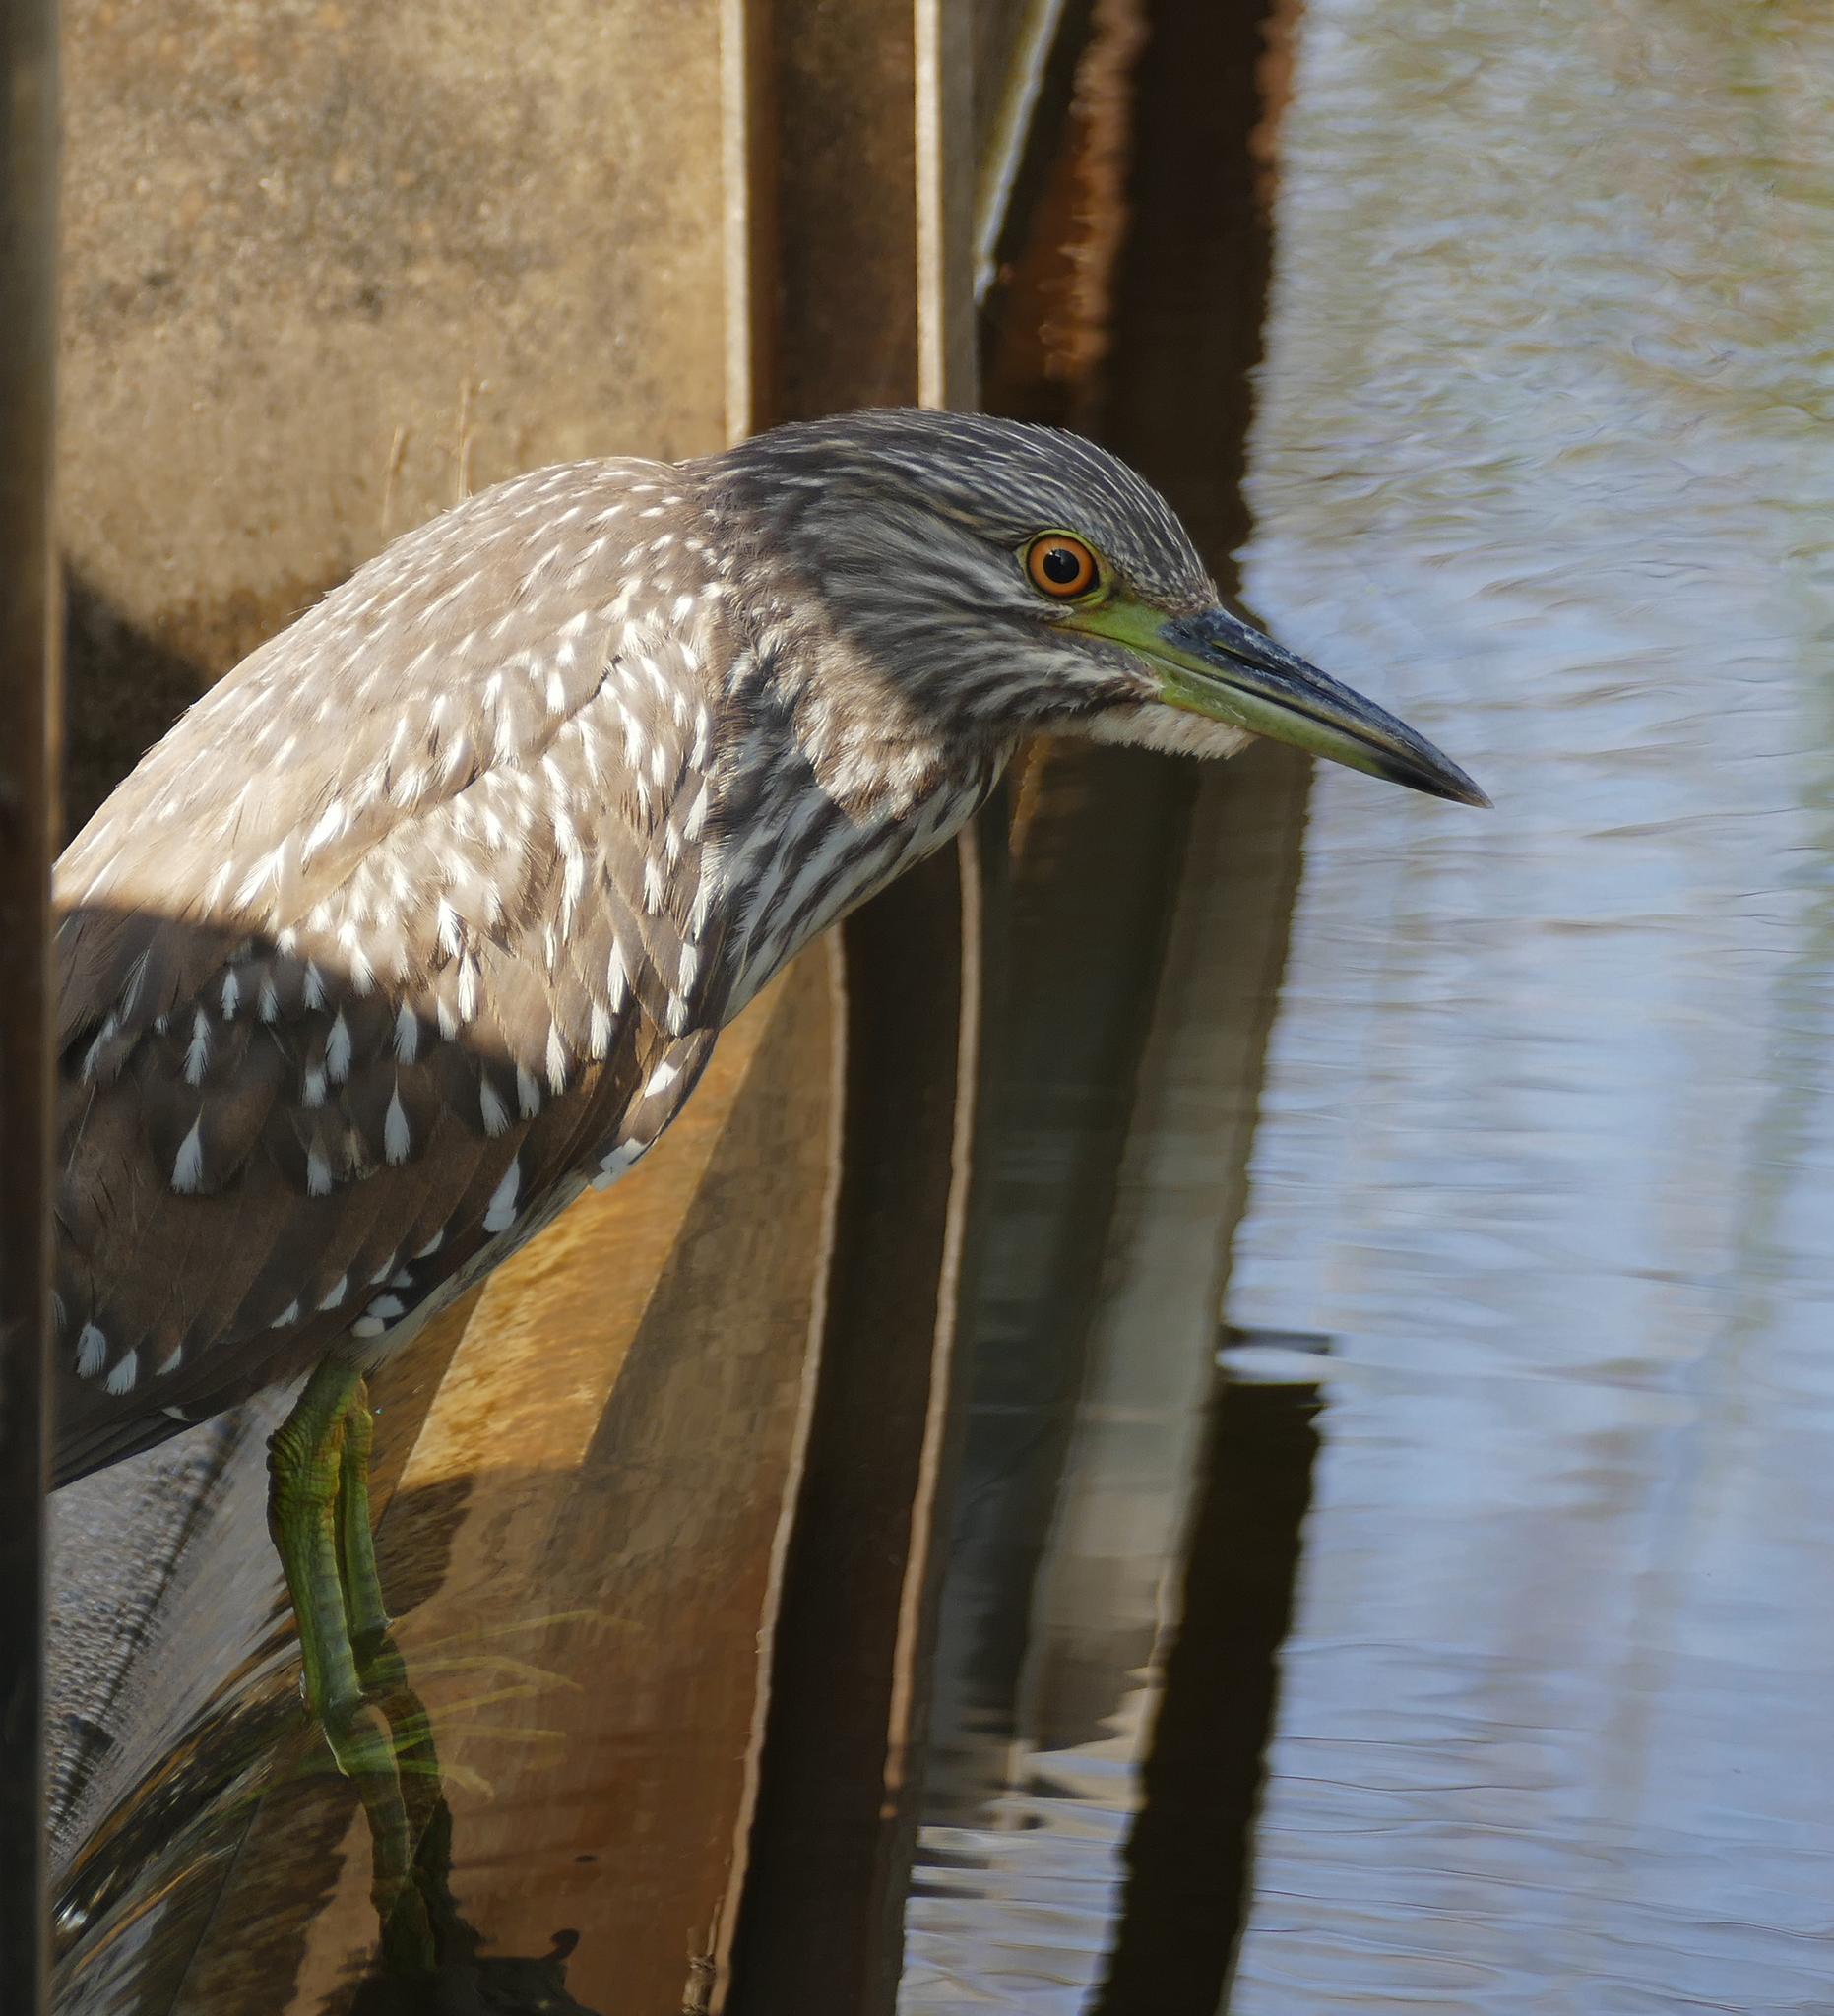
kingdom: Animalia
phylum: Chordata
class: Aves
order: Pelecaniformes
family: Ardeidae
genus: Nycticorax
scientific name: Nycticorax nycticorax
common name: Black-crowned night heron
